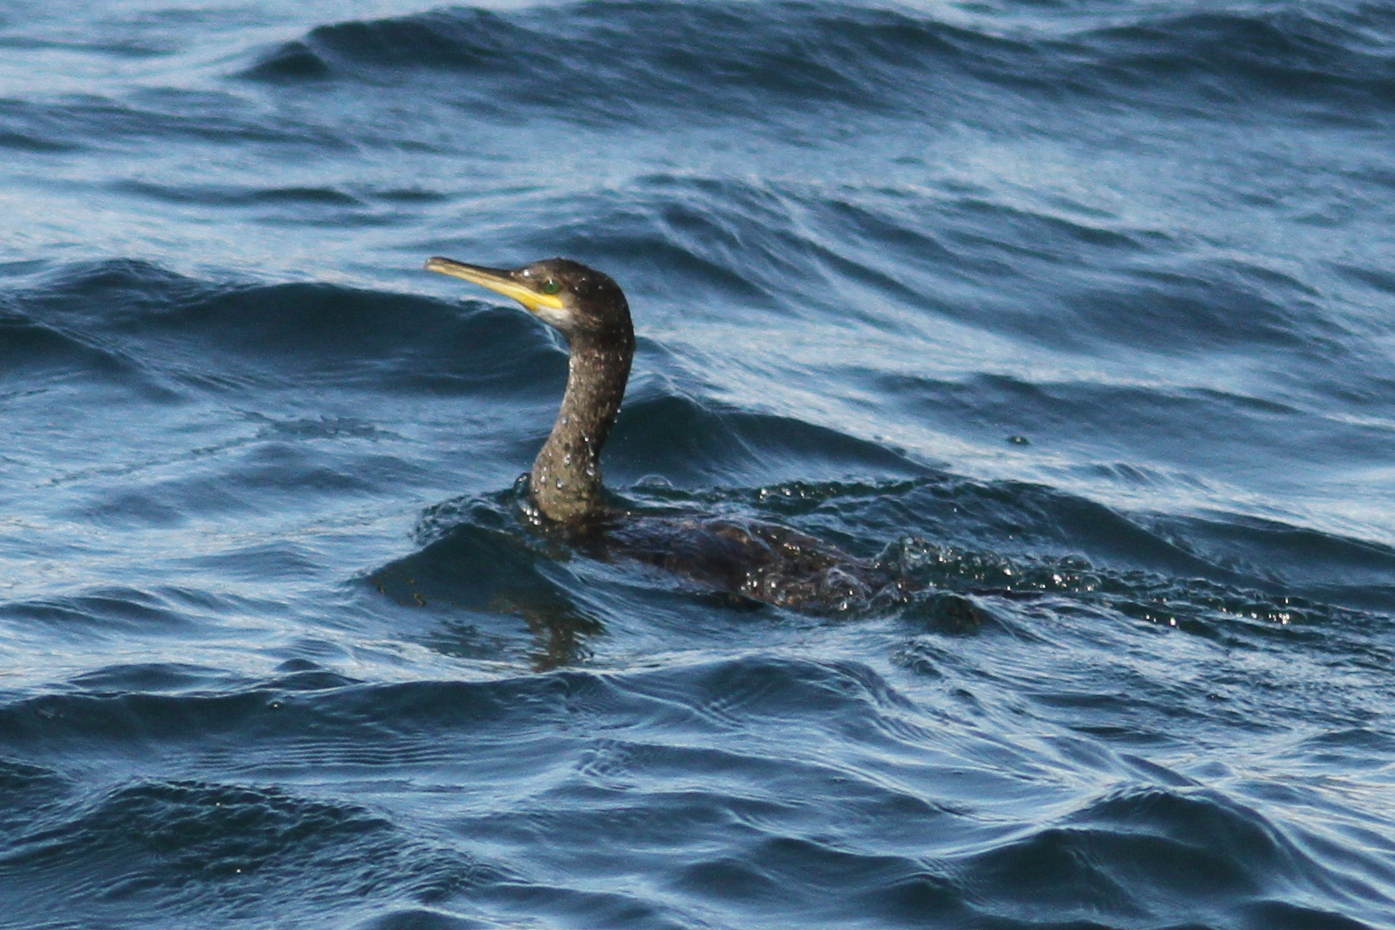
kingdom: Animalia
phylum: Chordata
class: Aves
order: Suliformes
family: Phalacrocoracidae
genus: Phalacrocorax
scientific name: Phalacrocorax aristotelis
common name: European shag
